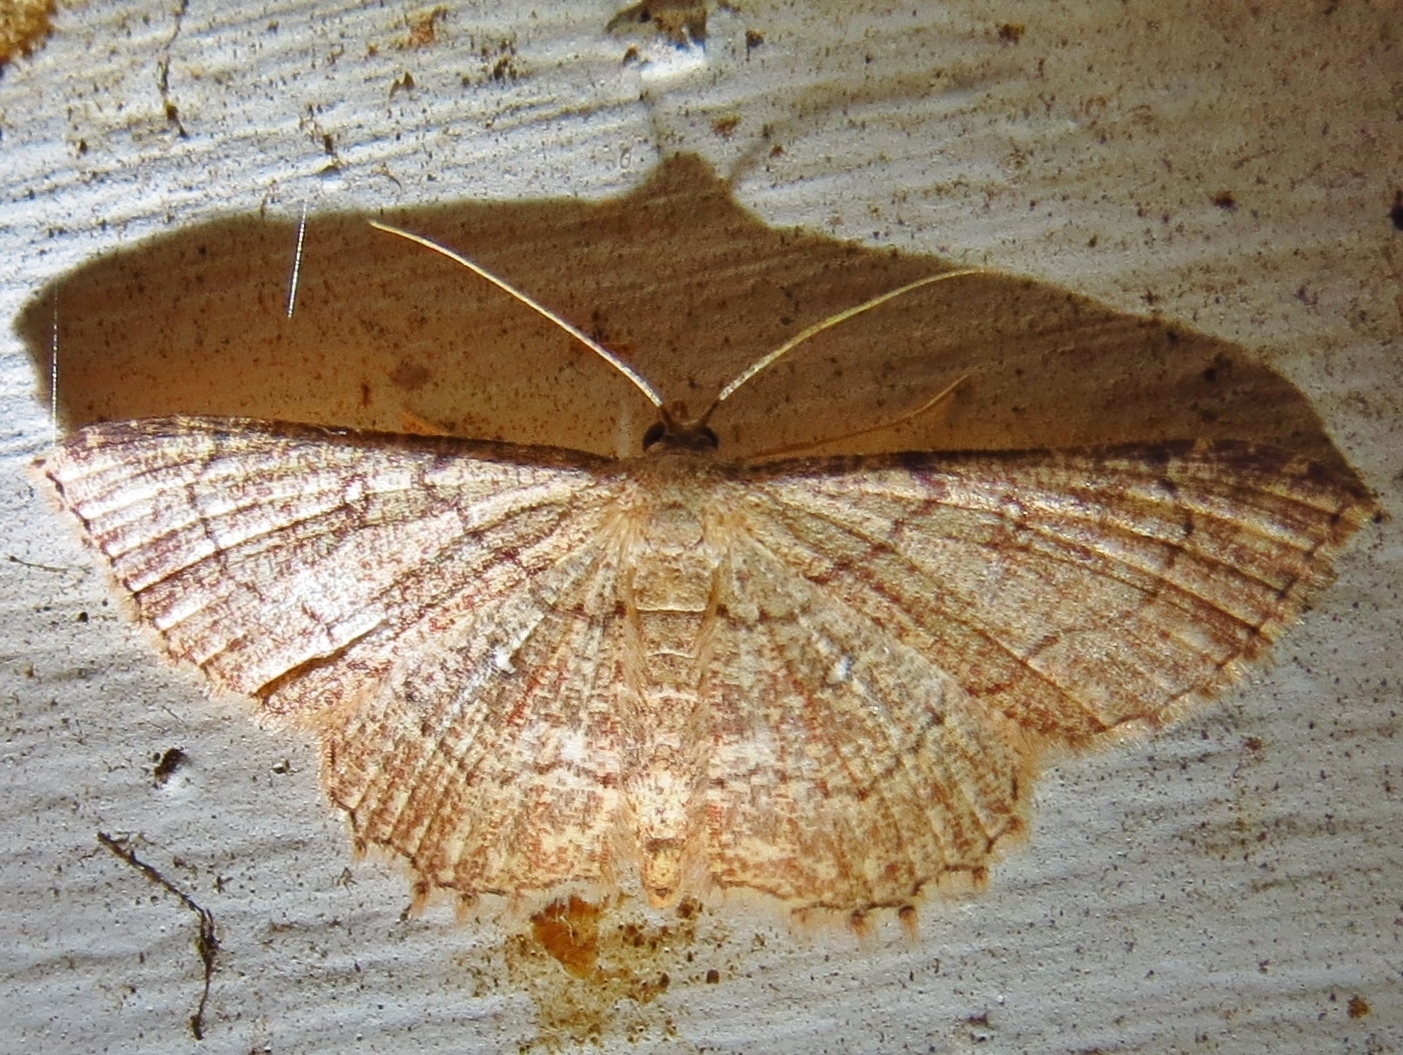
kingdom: Animalia
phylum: Arthropoda
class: Insecta
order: Lepidoptera
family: Geometridae
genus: Cyclophora
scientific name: Cyclophora nanaria
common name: Cankerworm
